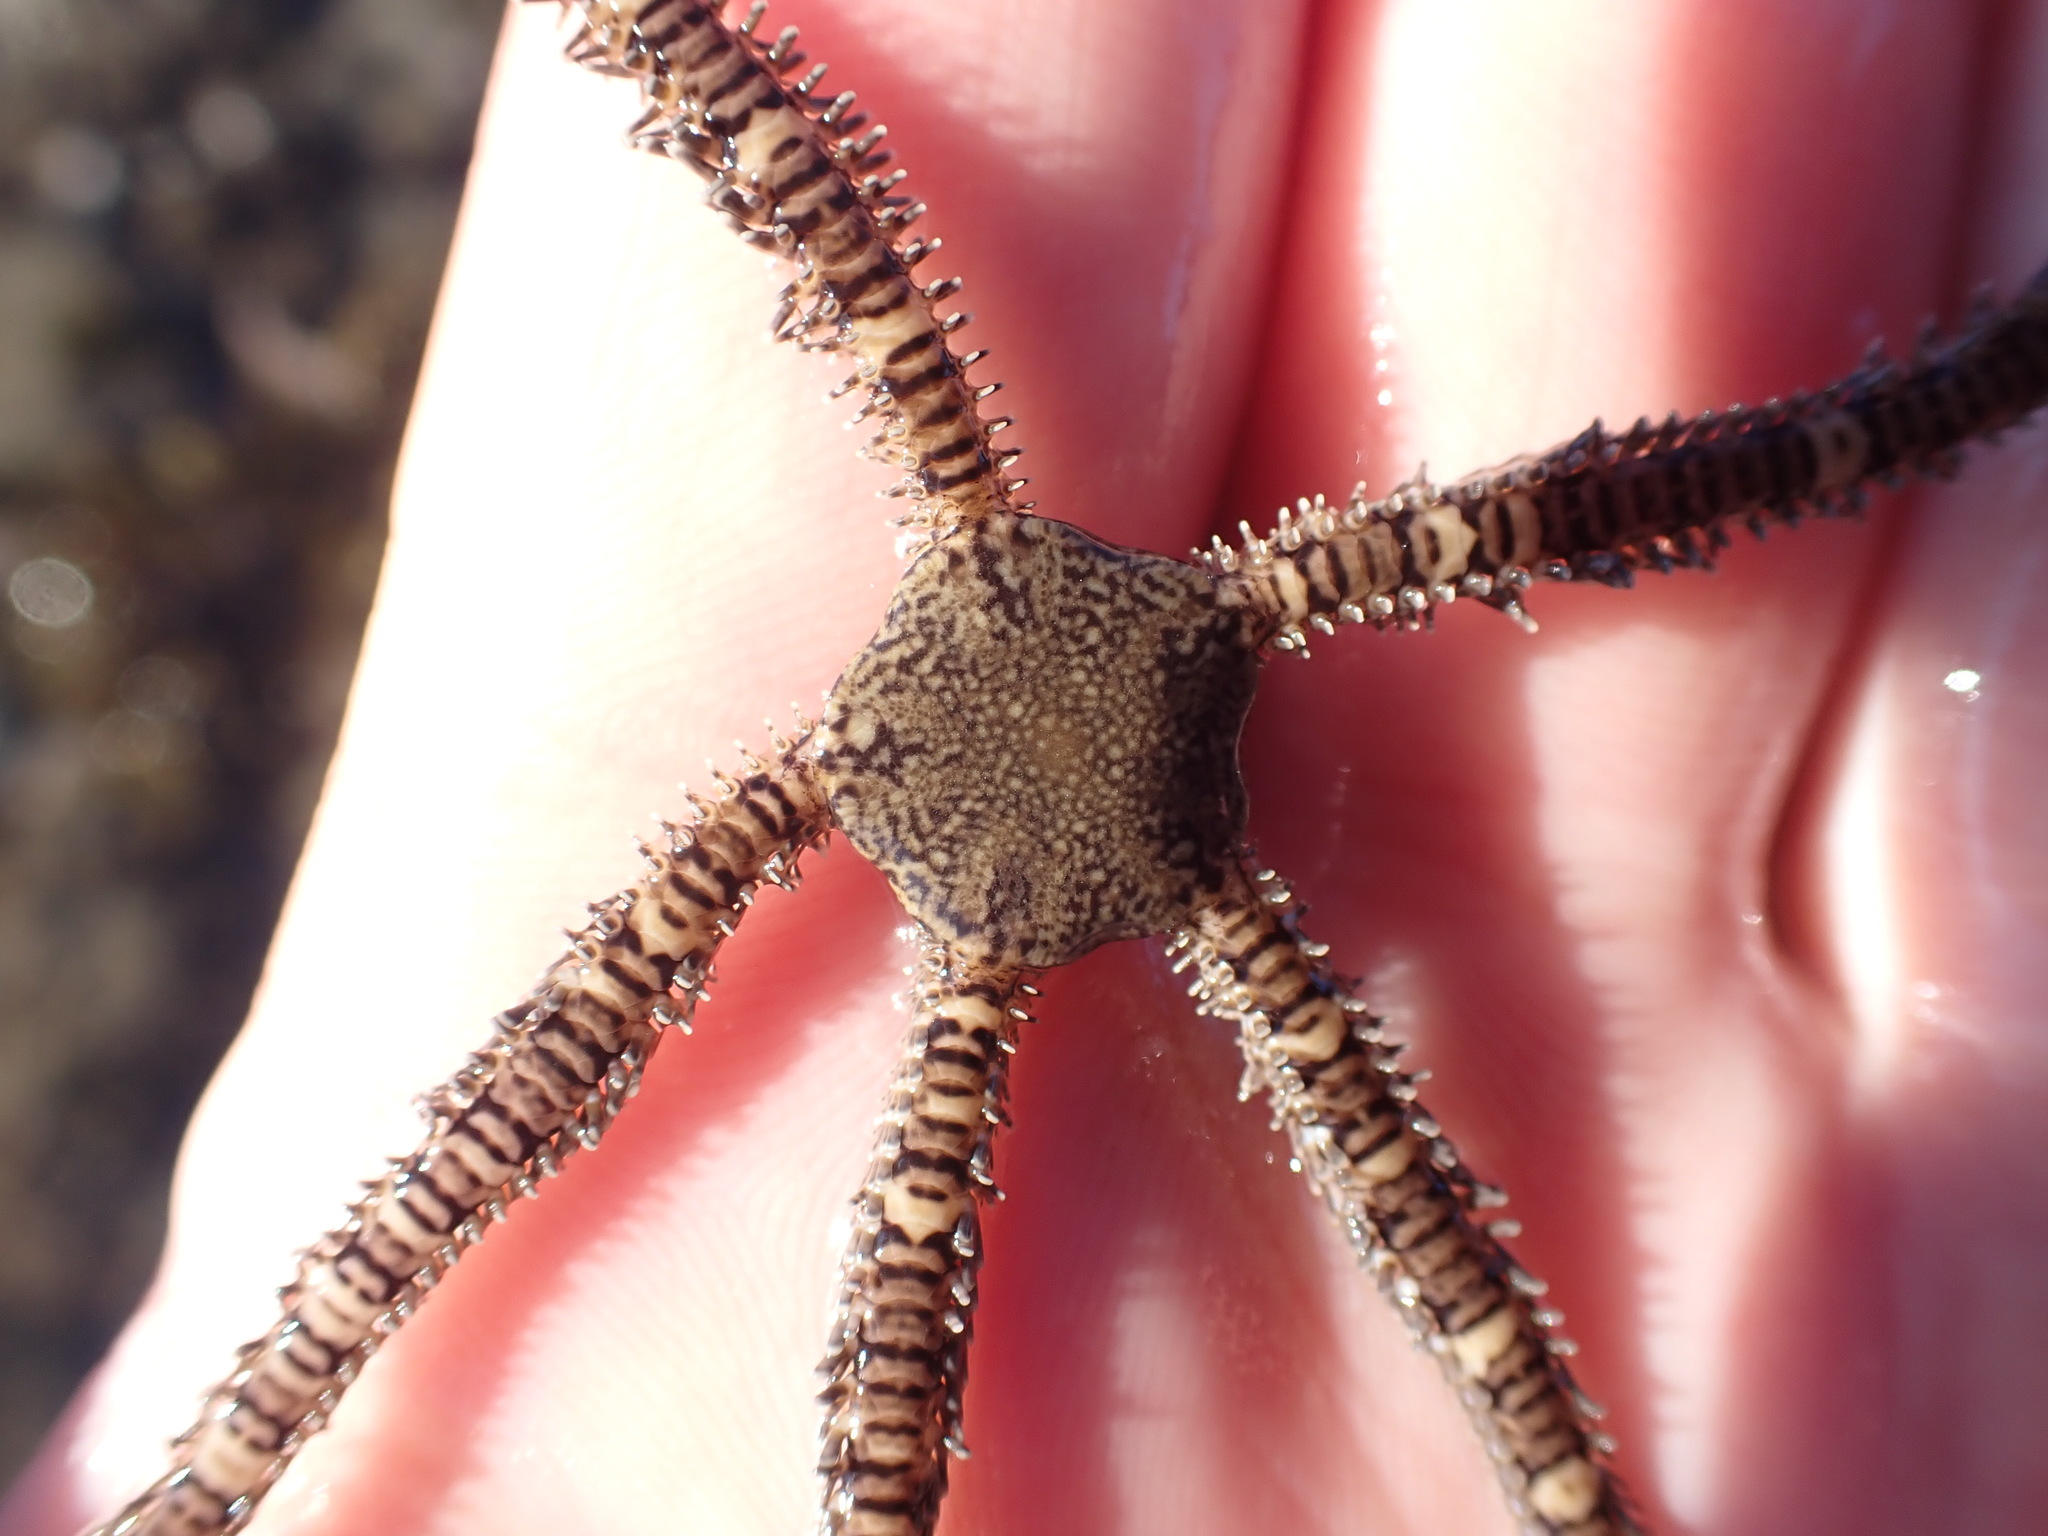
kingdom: Animalia
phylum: Echinodermata
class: Ophiuroidea
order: Amphilepidida
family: Ophionereididae
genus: Ophionereis
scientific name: Ophionereis fasciata
